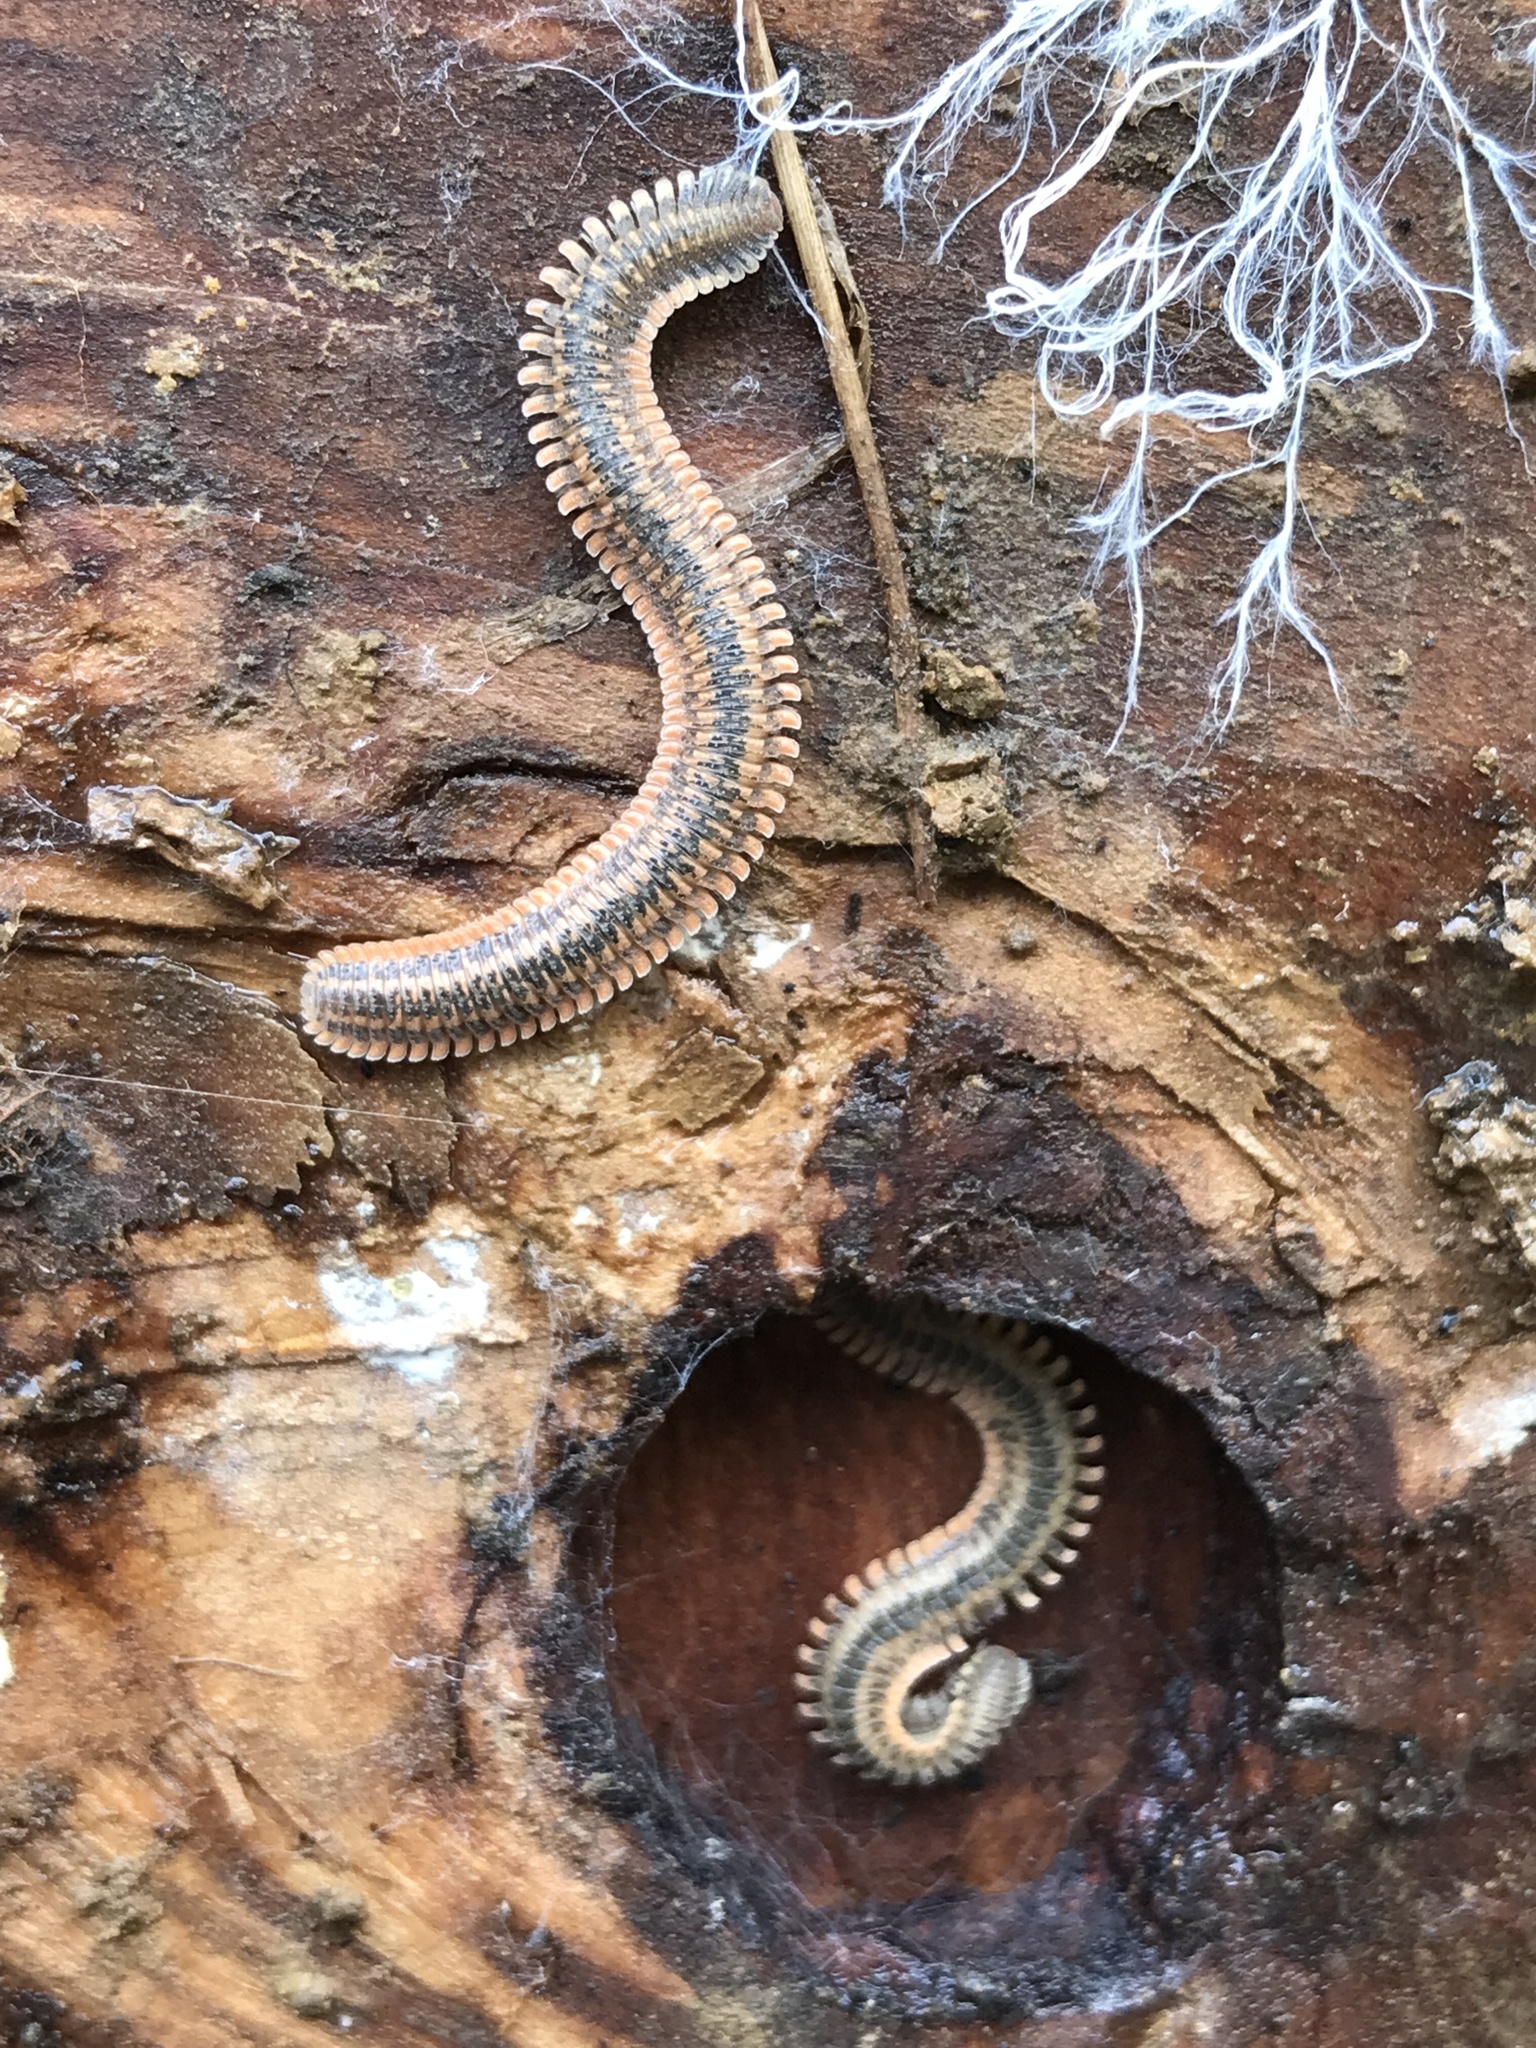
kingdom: Animalia
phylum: Arthropoda
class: Diplopoda
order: Platydesmida
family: Andrognathidae
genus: Brachycybe
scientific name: Brachycybe producta
